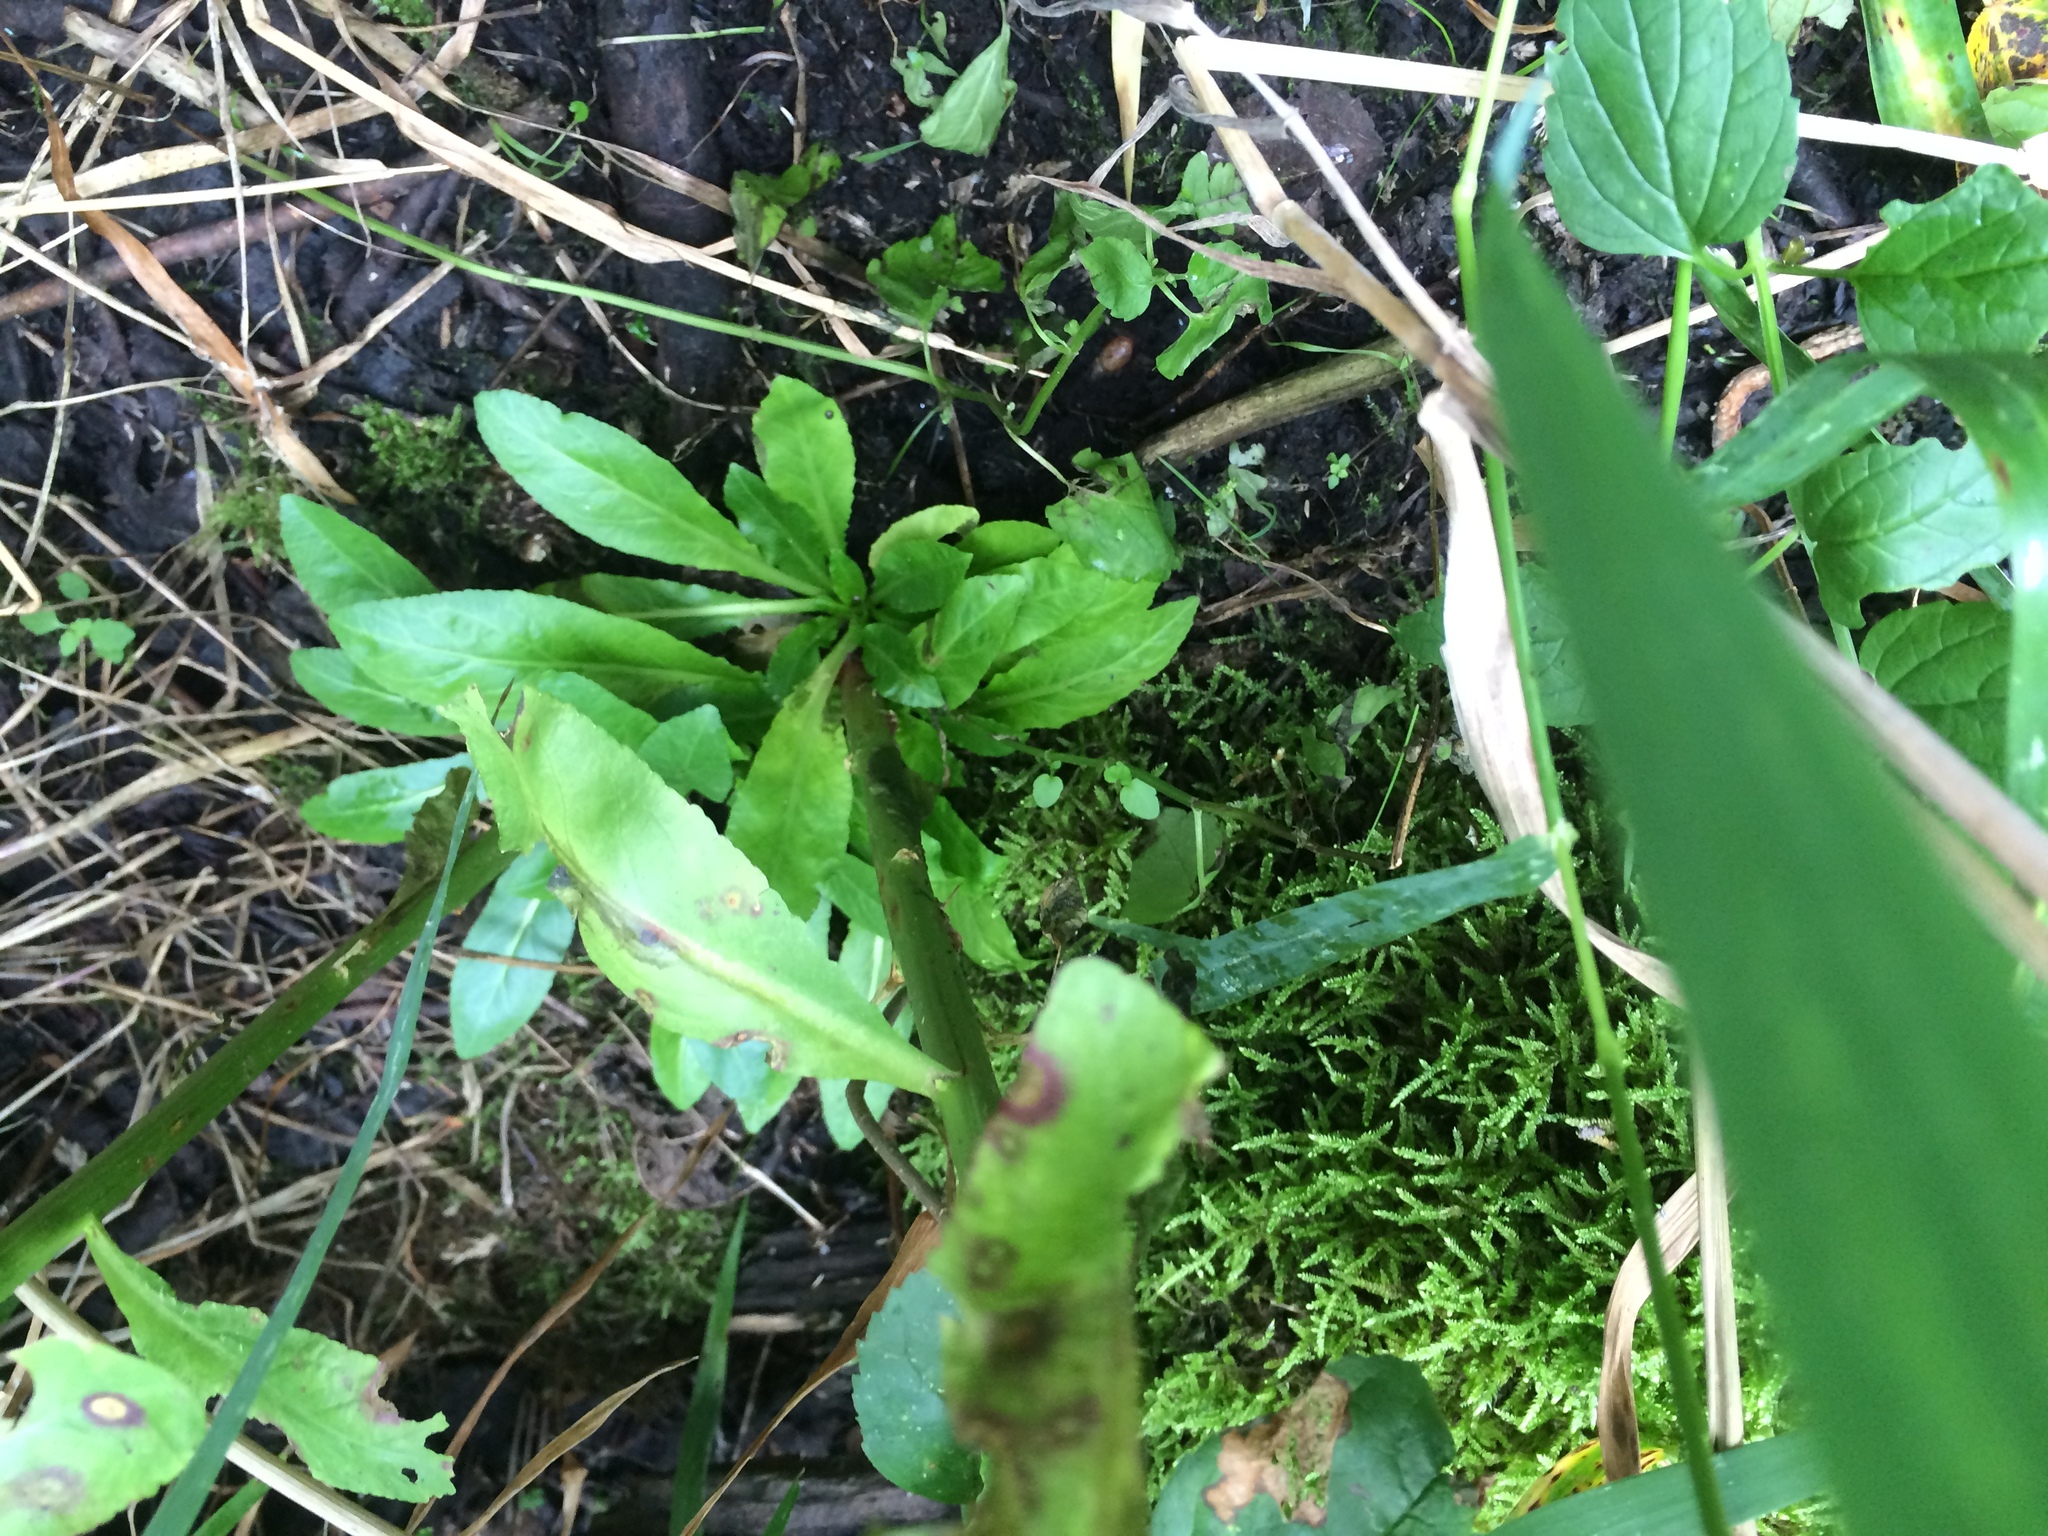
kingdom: Plantae
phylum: Tracheophyta
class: Magnoliopsida
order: Asterales
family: Campanulaceae
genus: Lobelia
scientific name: Lobelia cardinalis
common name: Cardinal flower
